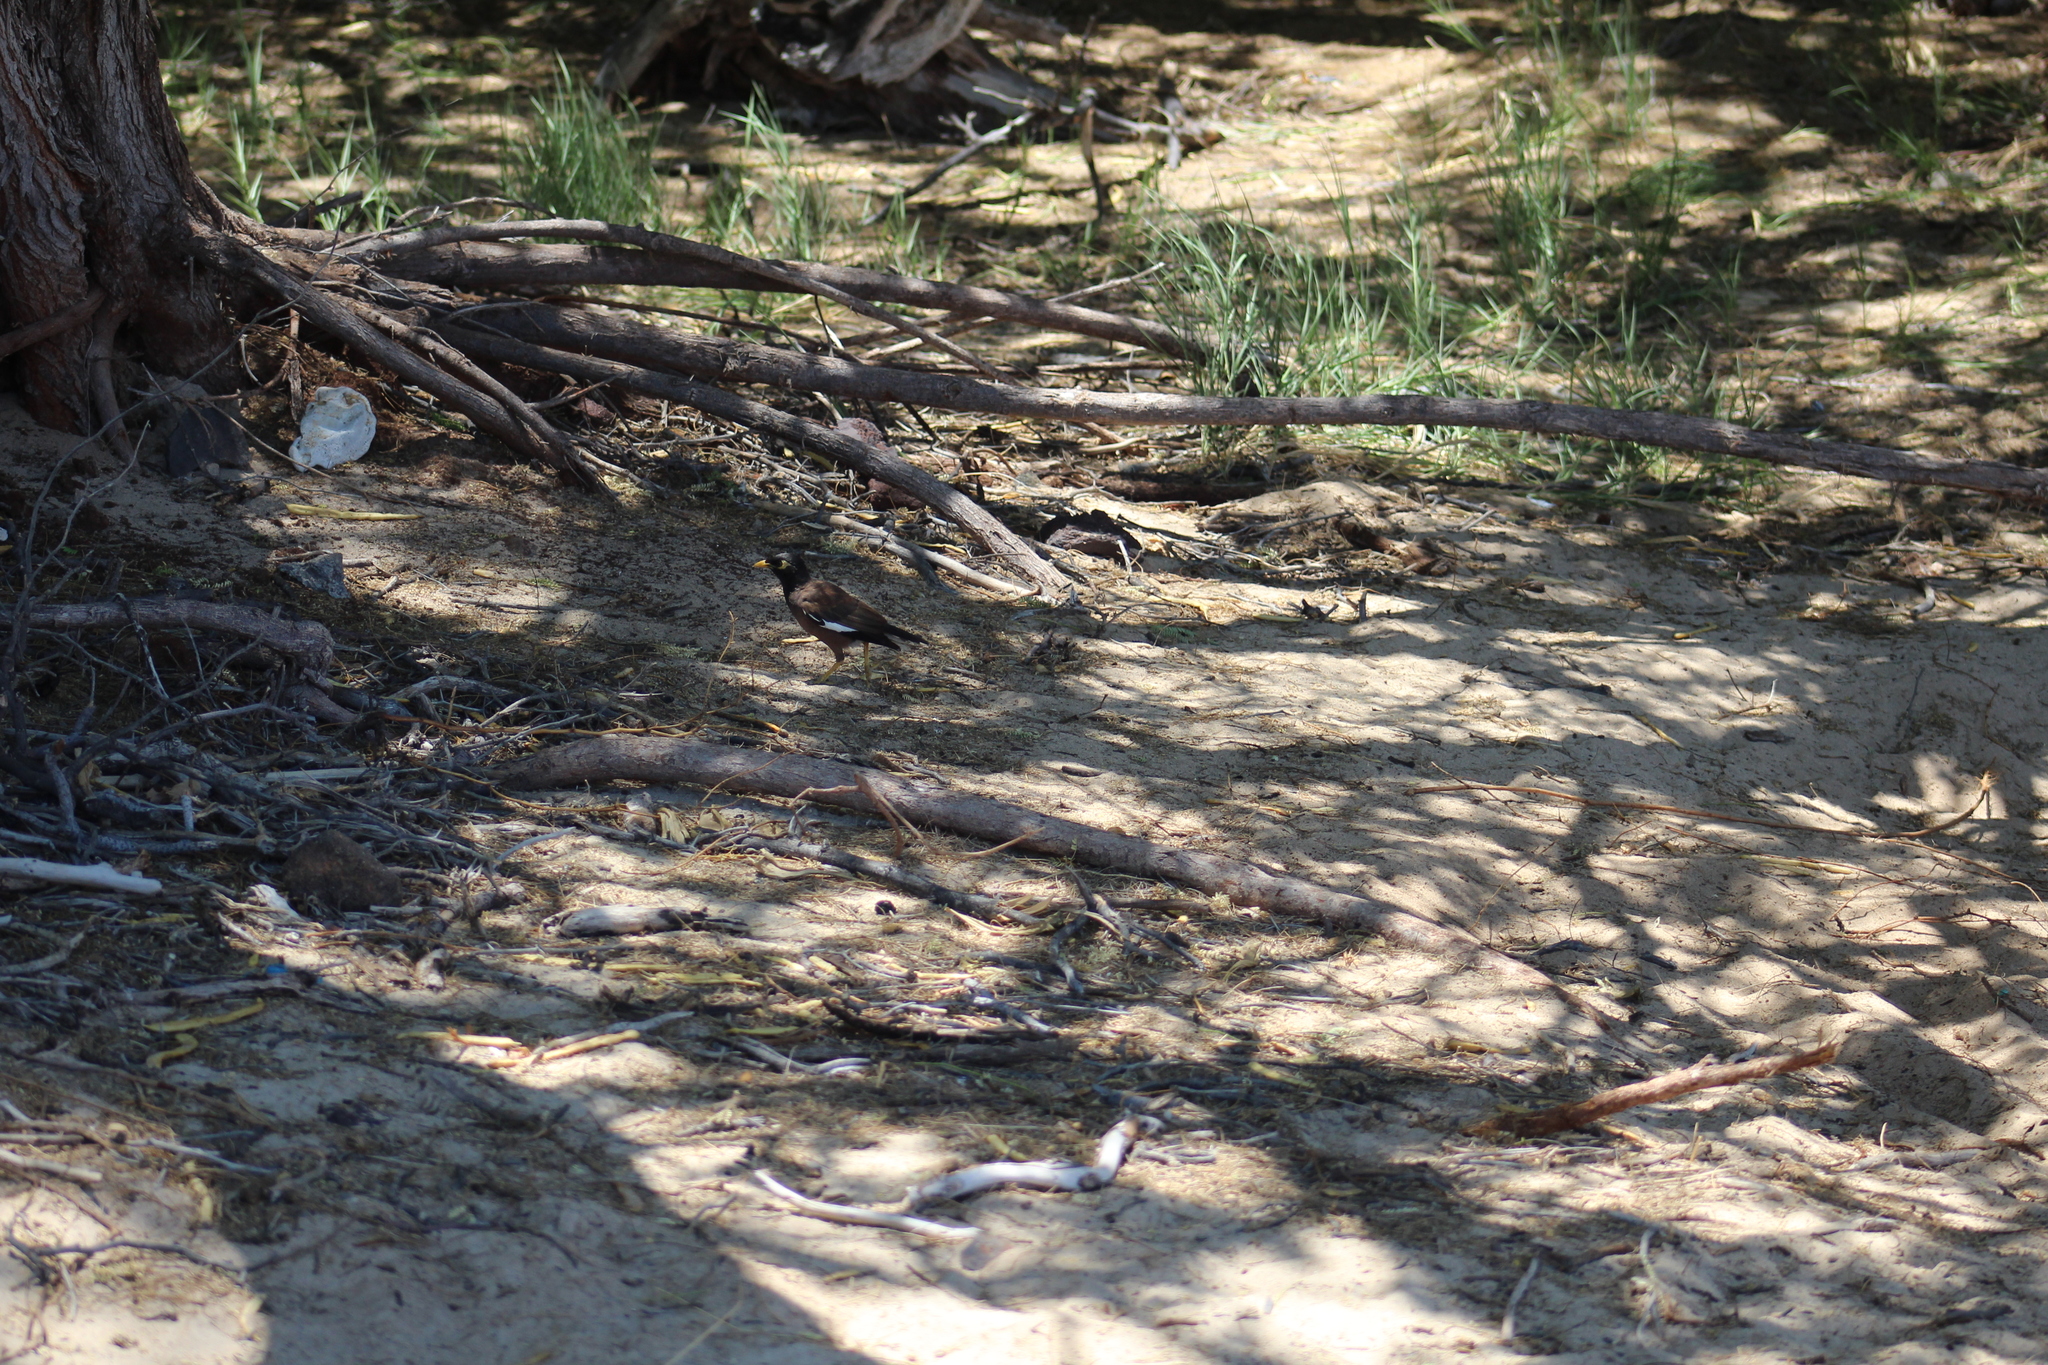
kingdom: Animalia
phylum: Chordata
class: Aves
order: Passeriformes
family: Sturnidae
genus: Acridotheres
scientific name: Acridotheres tristis
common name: Common myna
